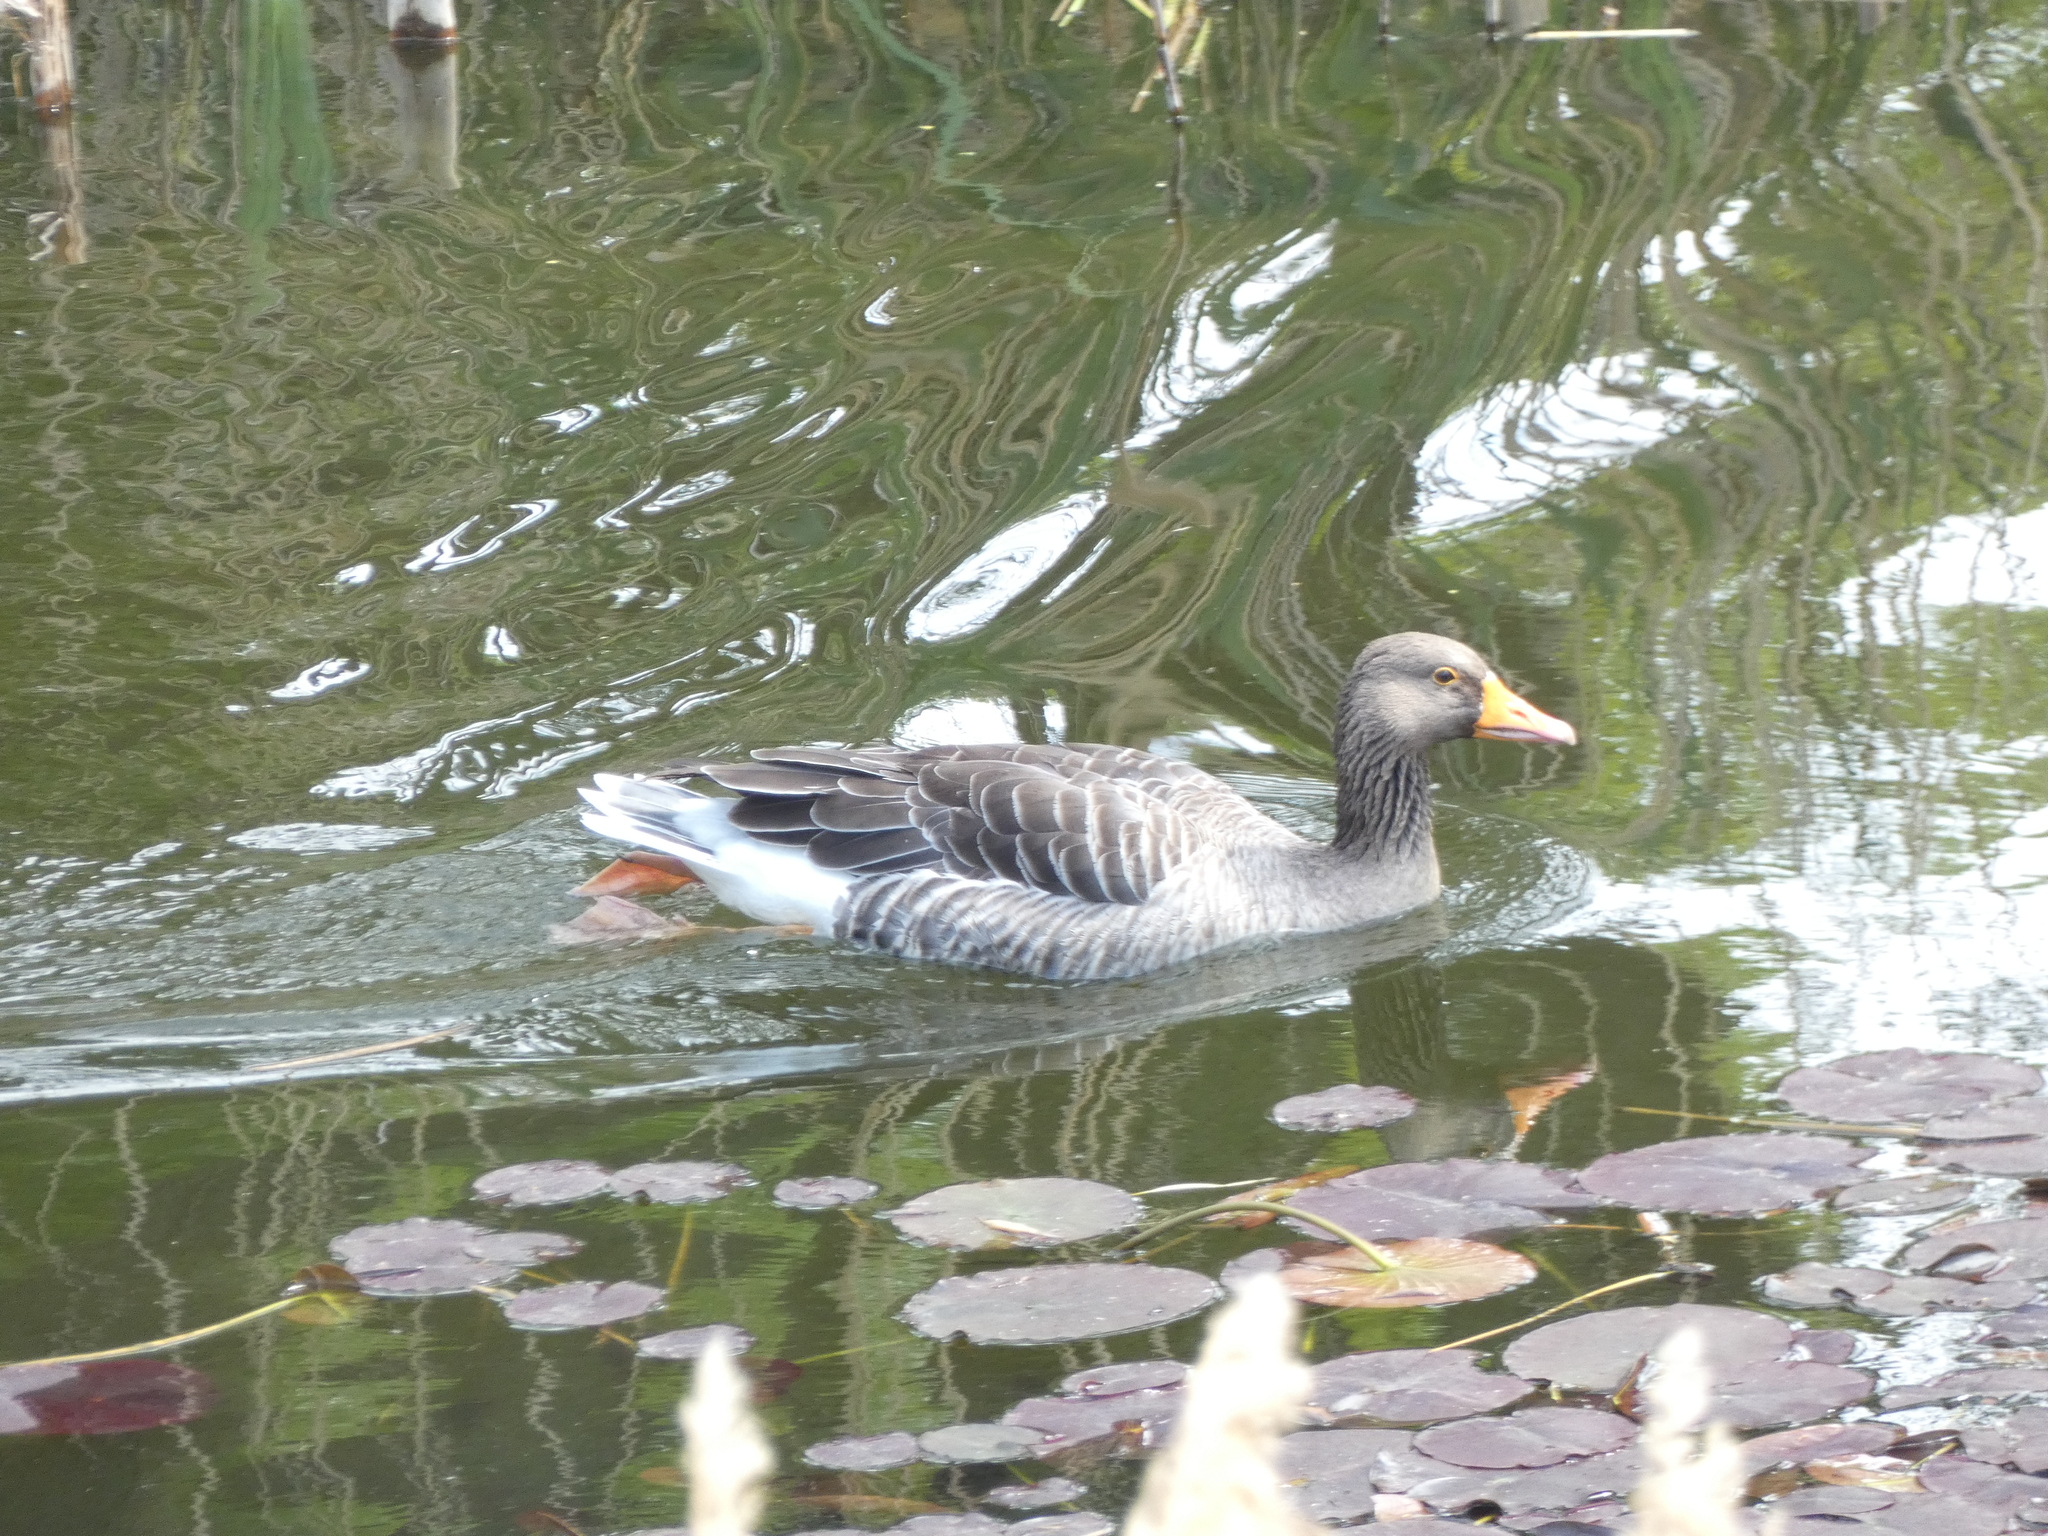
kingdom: Animalia
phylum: Chordata
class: Aves
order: Anseriformes
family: Anatidae
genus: Anser
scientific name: Anser anser
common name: Greylag goose
